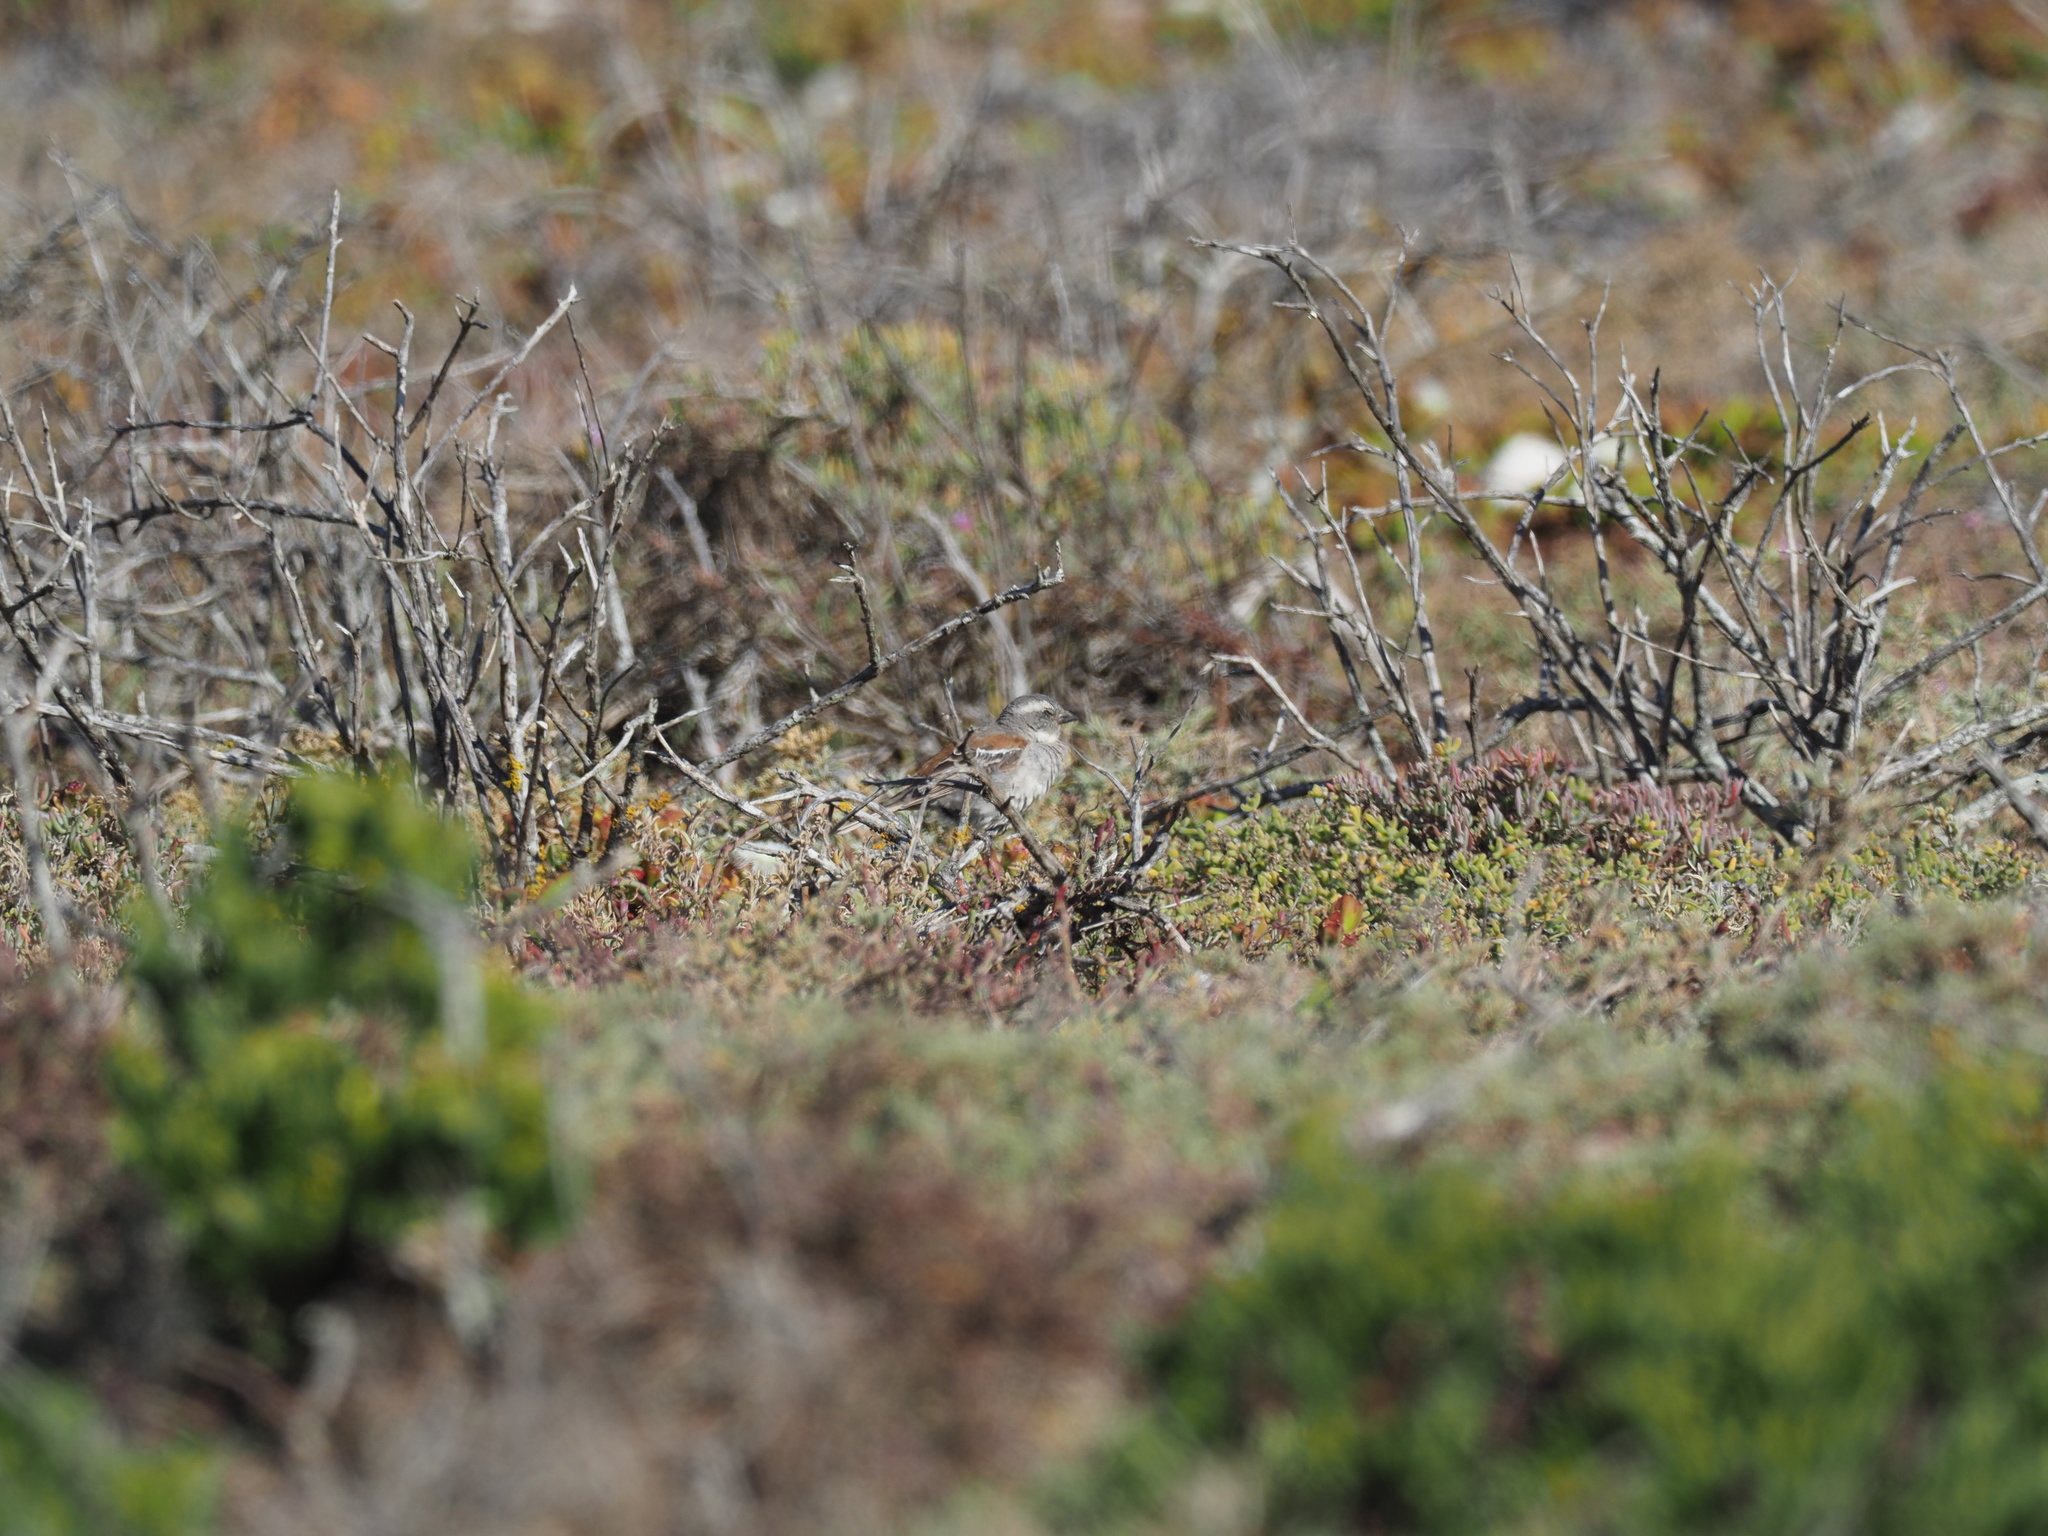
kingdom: Animalia
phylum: Chordata
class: Aves
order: Passeriformes
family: Passeridae
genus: Passer
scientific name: Passer melanurus
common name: Cape sparrow
